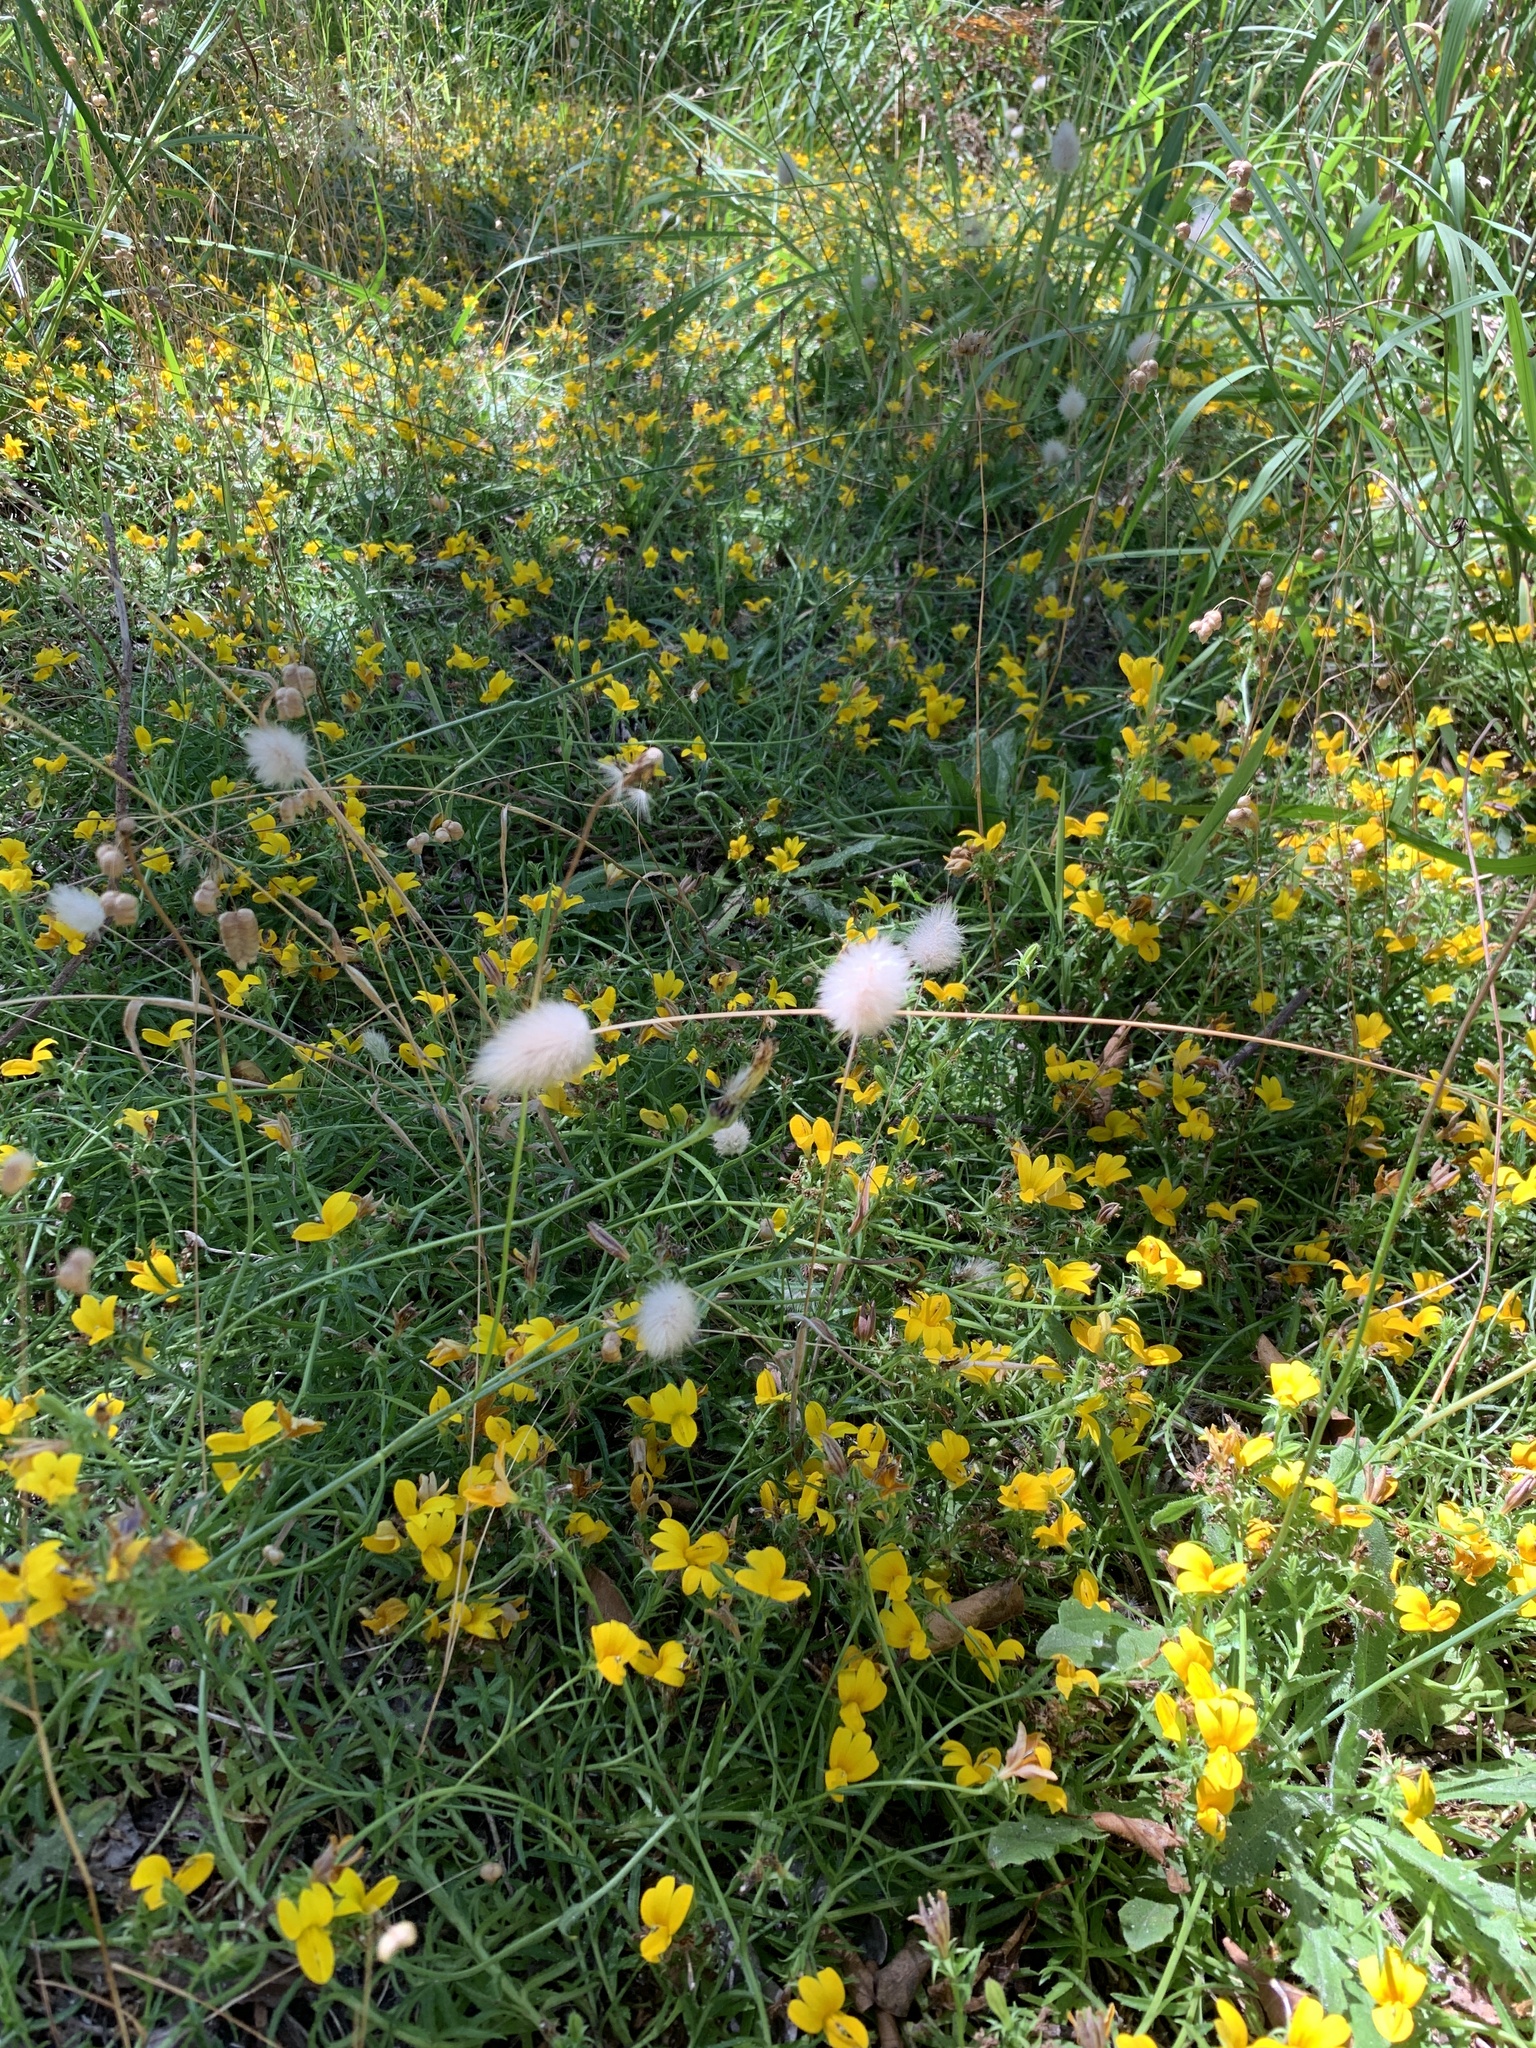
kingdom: Plantae
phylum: Tracheophyta
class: Magnoliopsida
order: Asterales
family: Campanulaceae
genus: Monopsis
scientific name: Monopsis lutea
